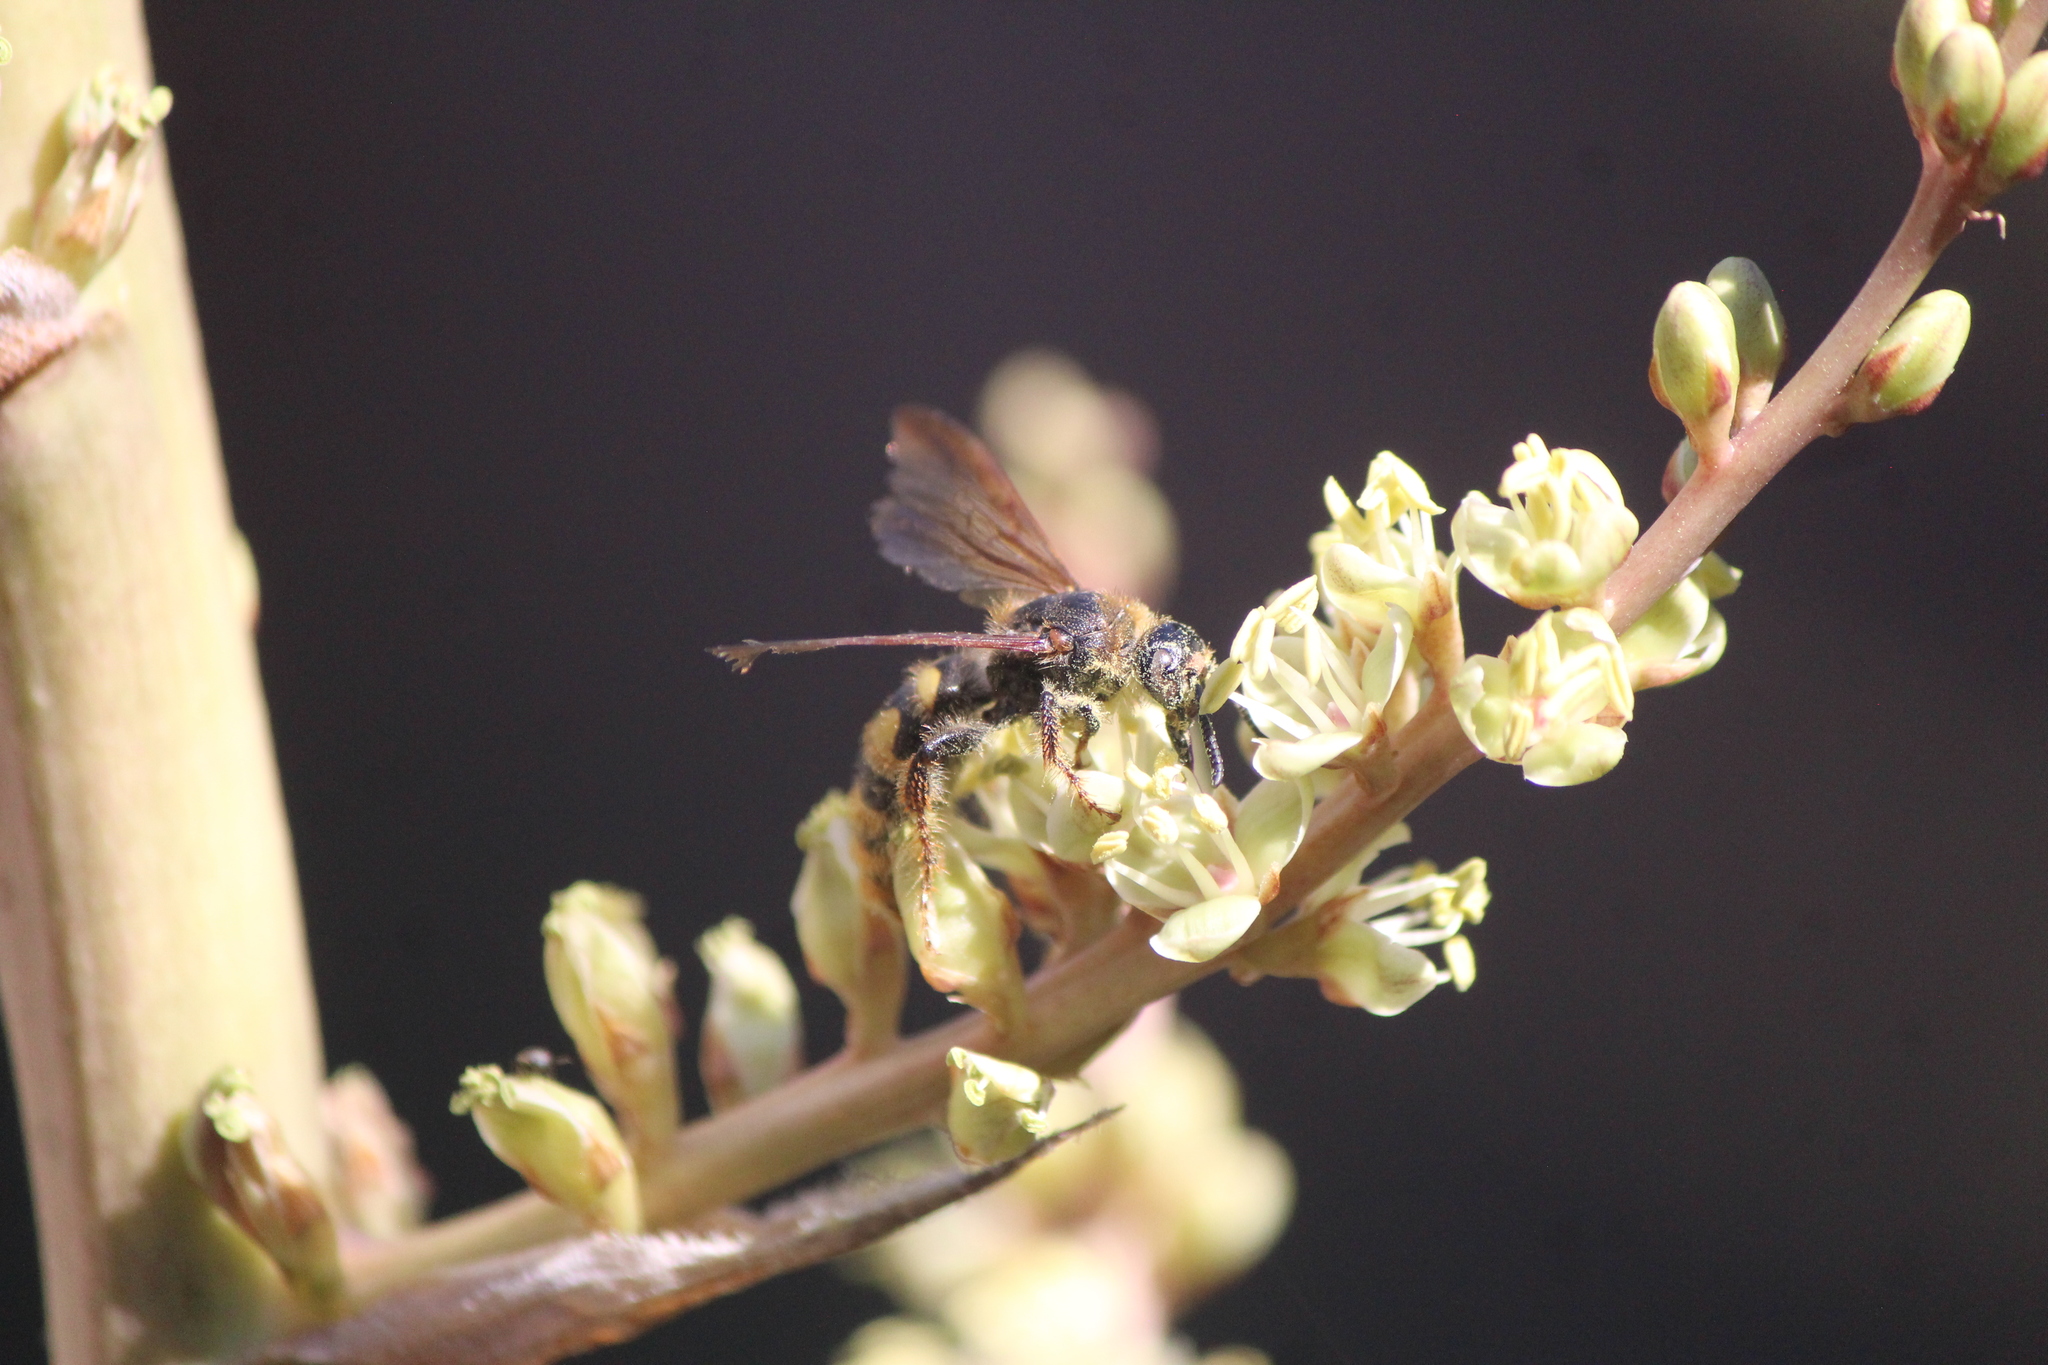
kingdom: Animalia
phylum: Arthropoda
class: Insecta
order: Hymenoptera
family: Scoliidae
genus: Xanthocampsomeris
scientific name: Xanthocampsomeris completa
